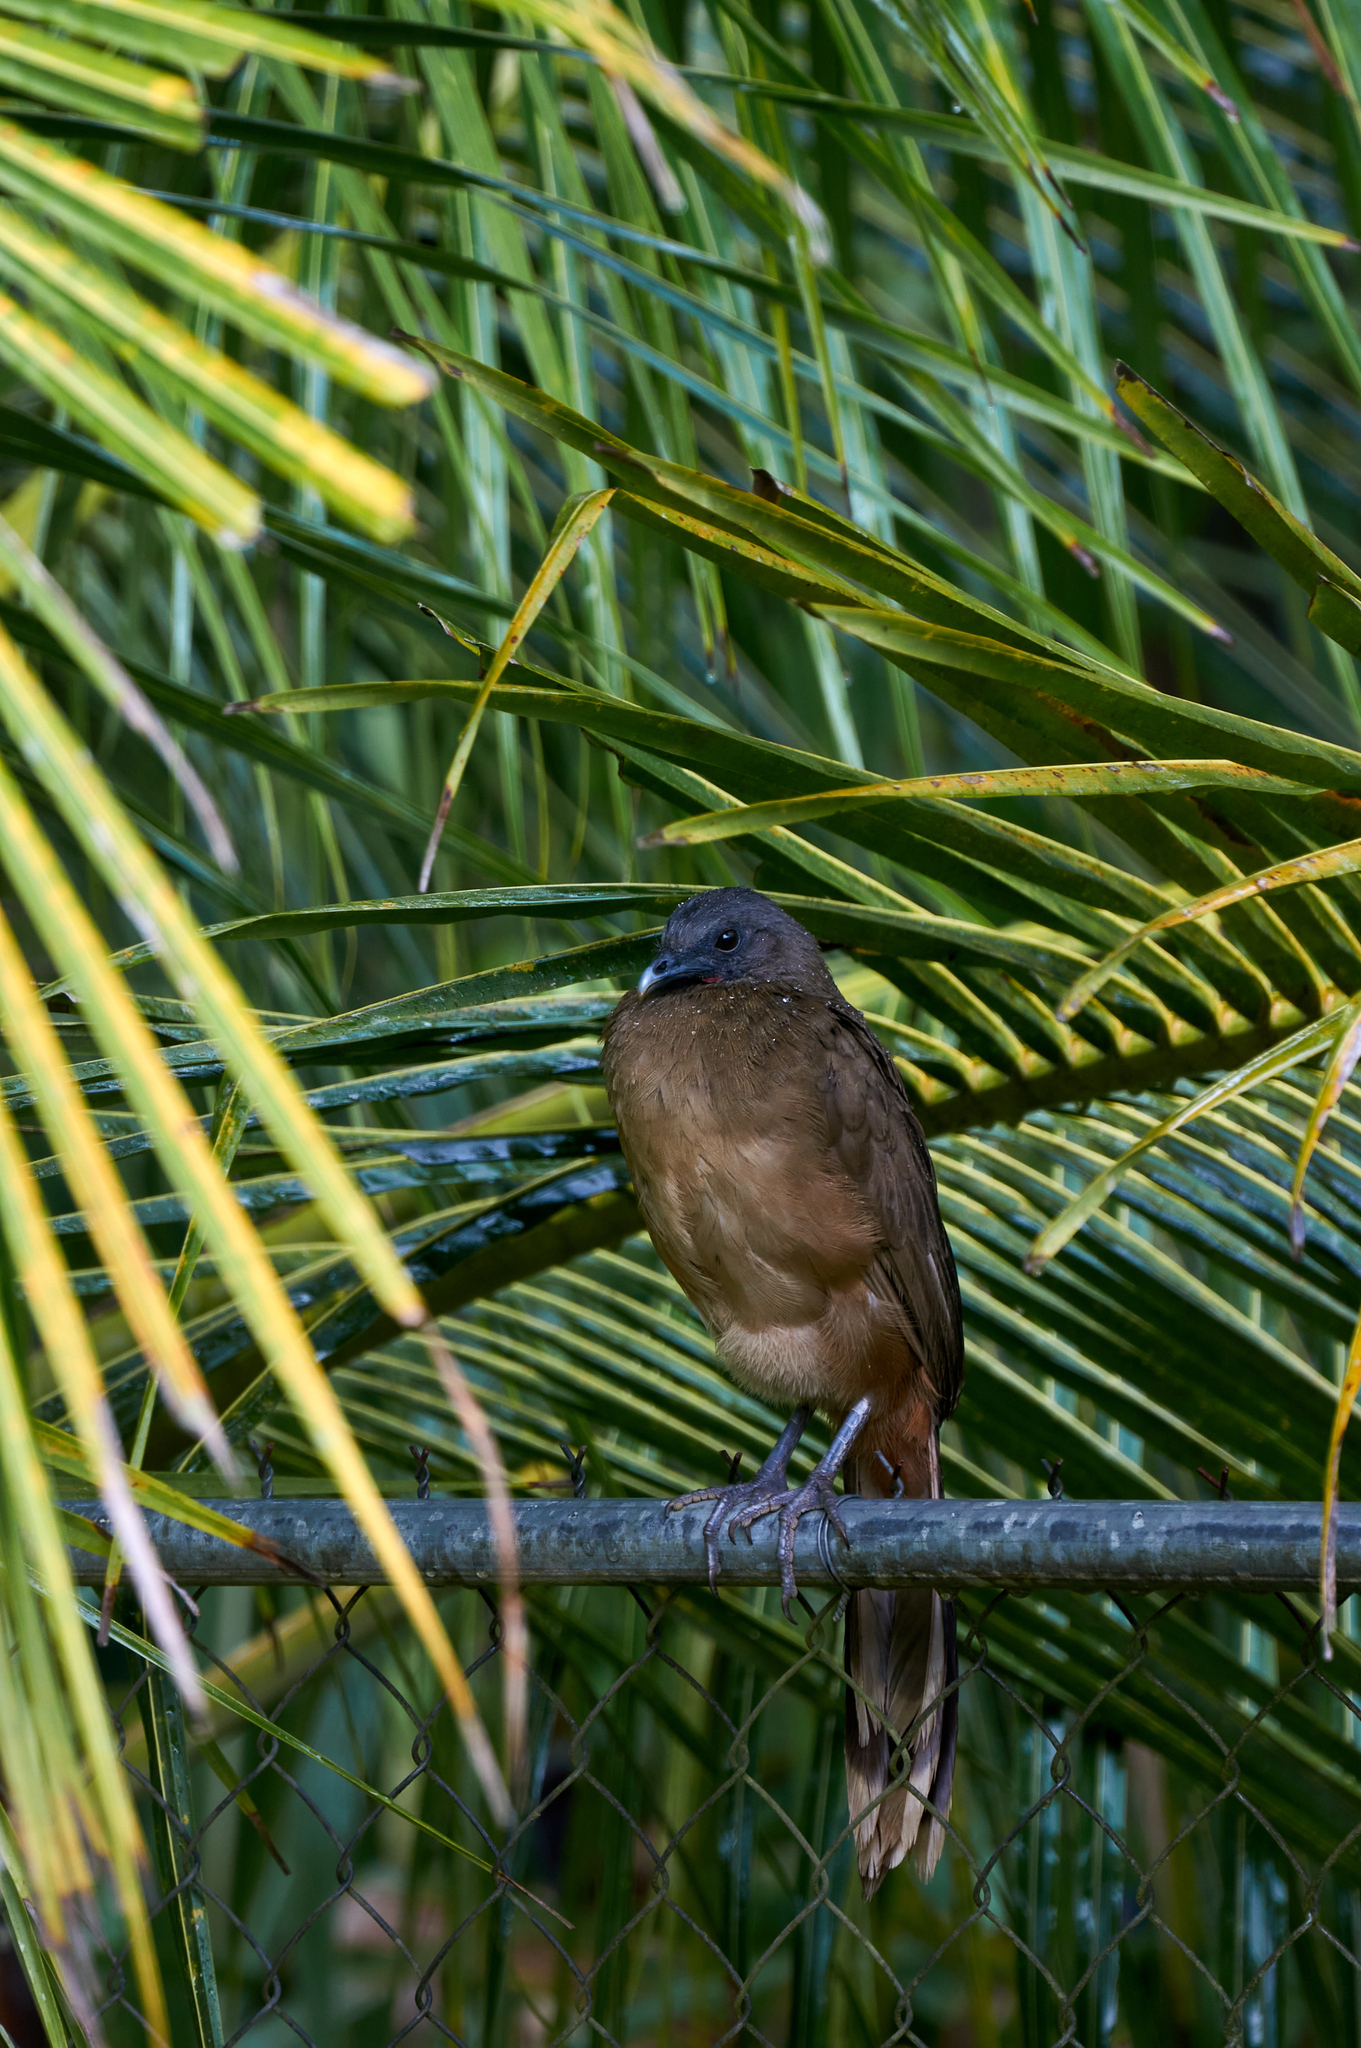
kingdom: Animalia
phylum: Chordata
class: Aves
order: Galliformes
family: Cracidae
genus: Ortalis
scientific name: Ortalis vetula
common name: Plain chachalaca
